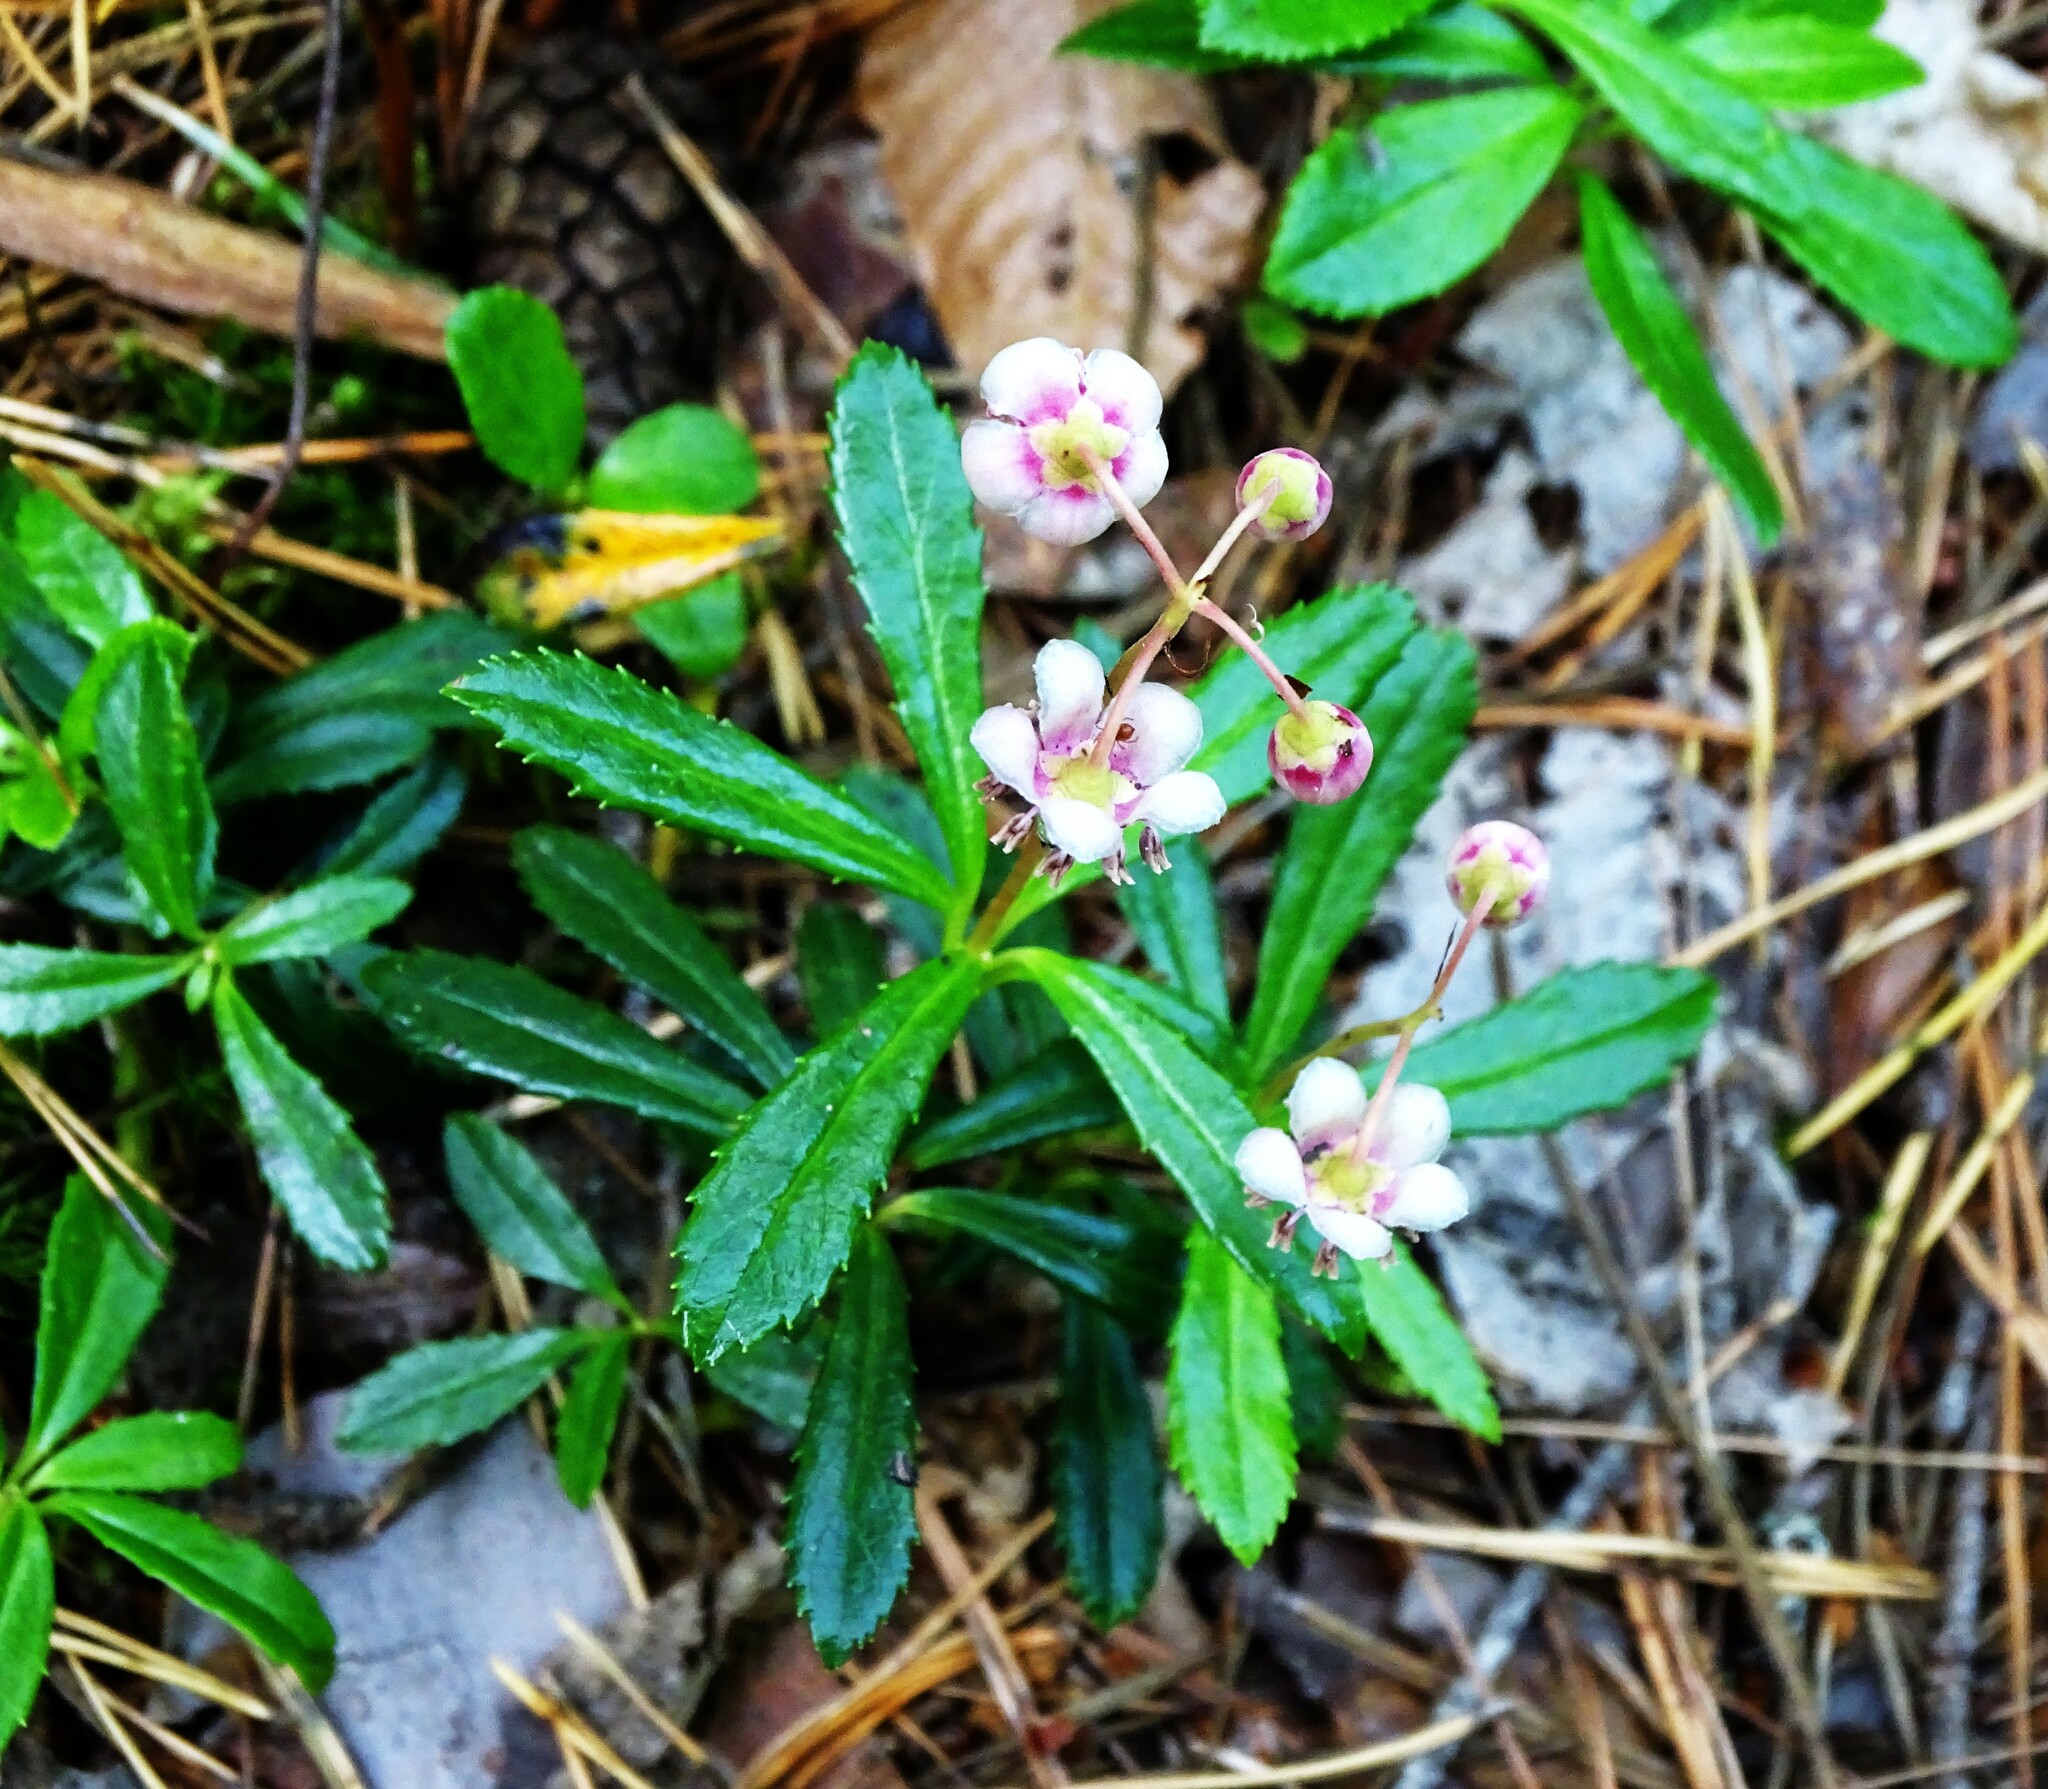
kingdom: Plantae
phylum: Tracheophyta
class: Magnoliopsida
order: Ericales
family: Ericaceae
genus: Chimaphila
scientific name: Chimaphila umbellata
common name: Pipsissewa
